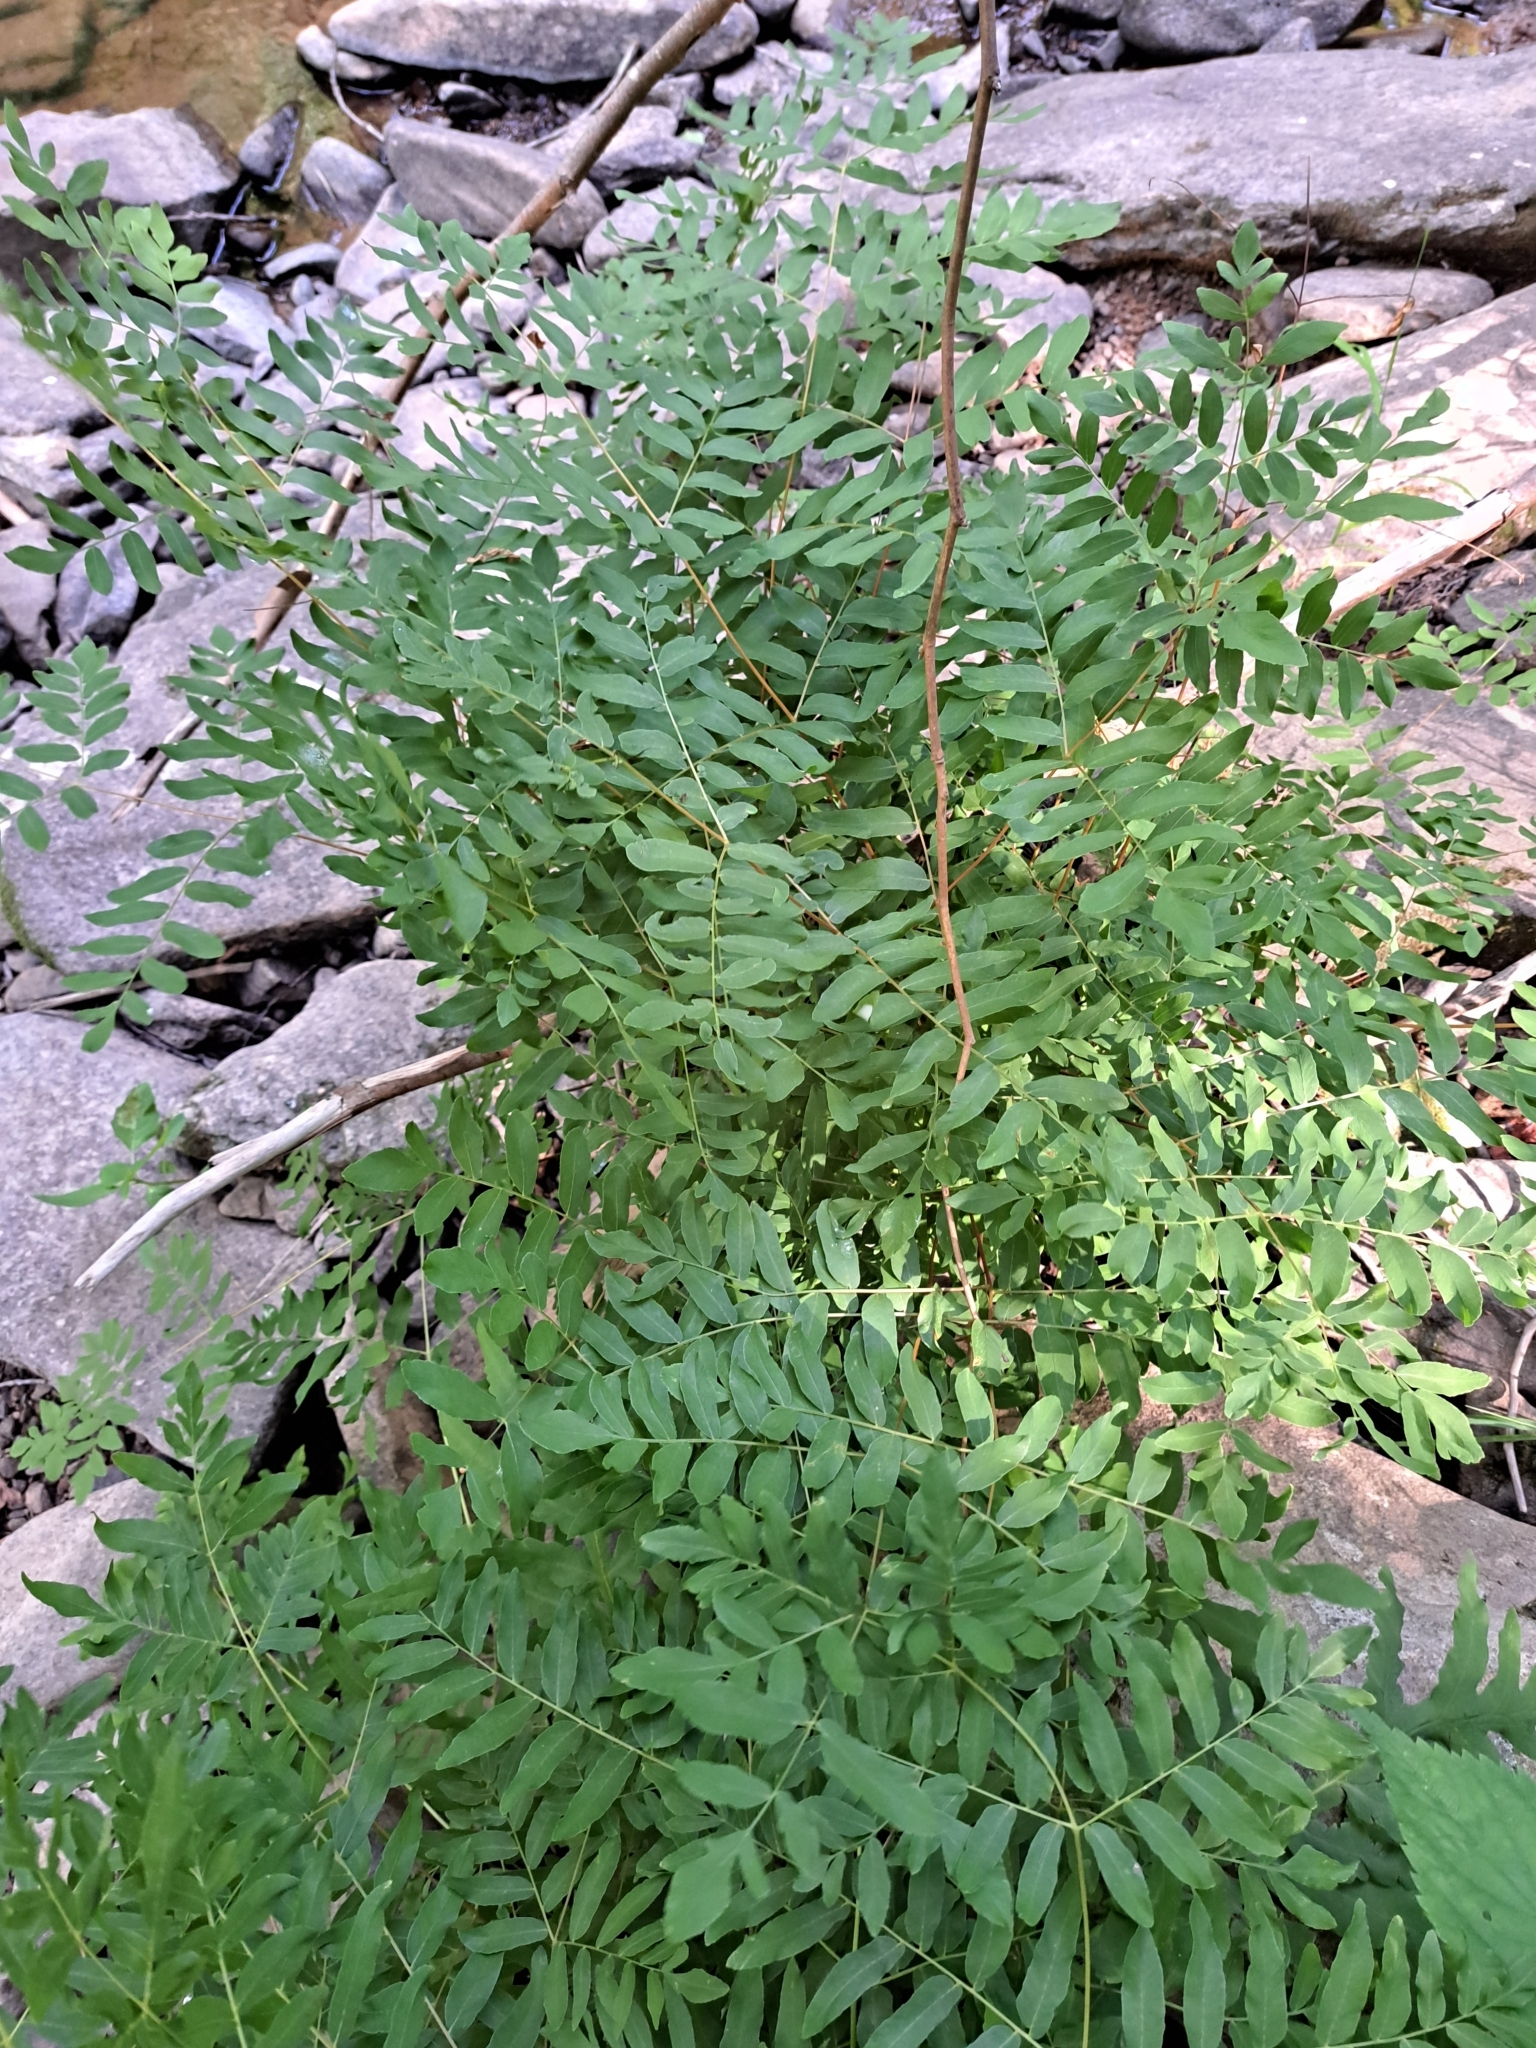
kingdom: Plantae
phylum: Tracheophyta
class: Polypodiopsida
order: Osmundales
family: Osmundaceae
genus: Osmunda
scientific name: Osmunda spectabilis
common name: American royal fern
